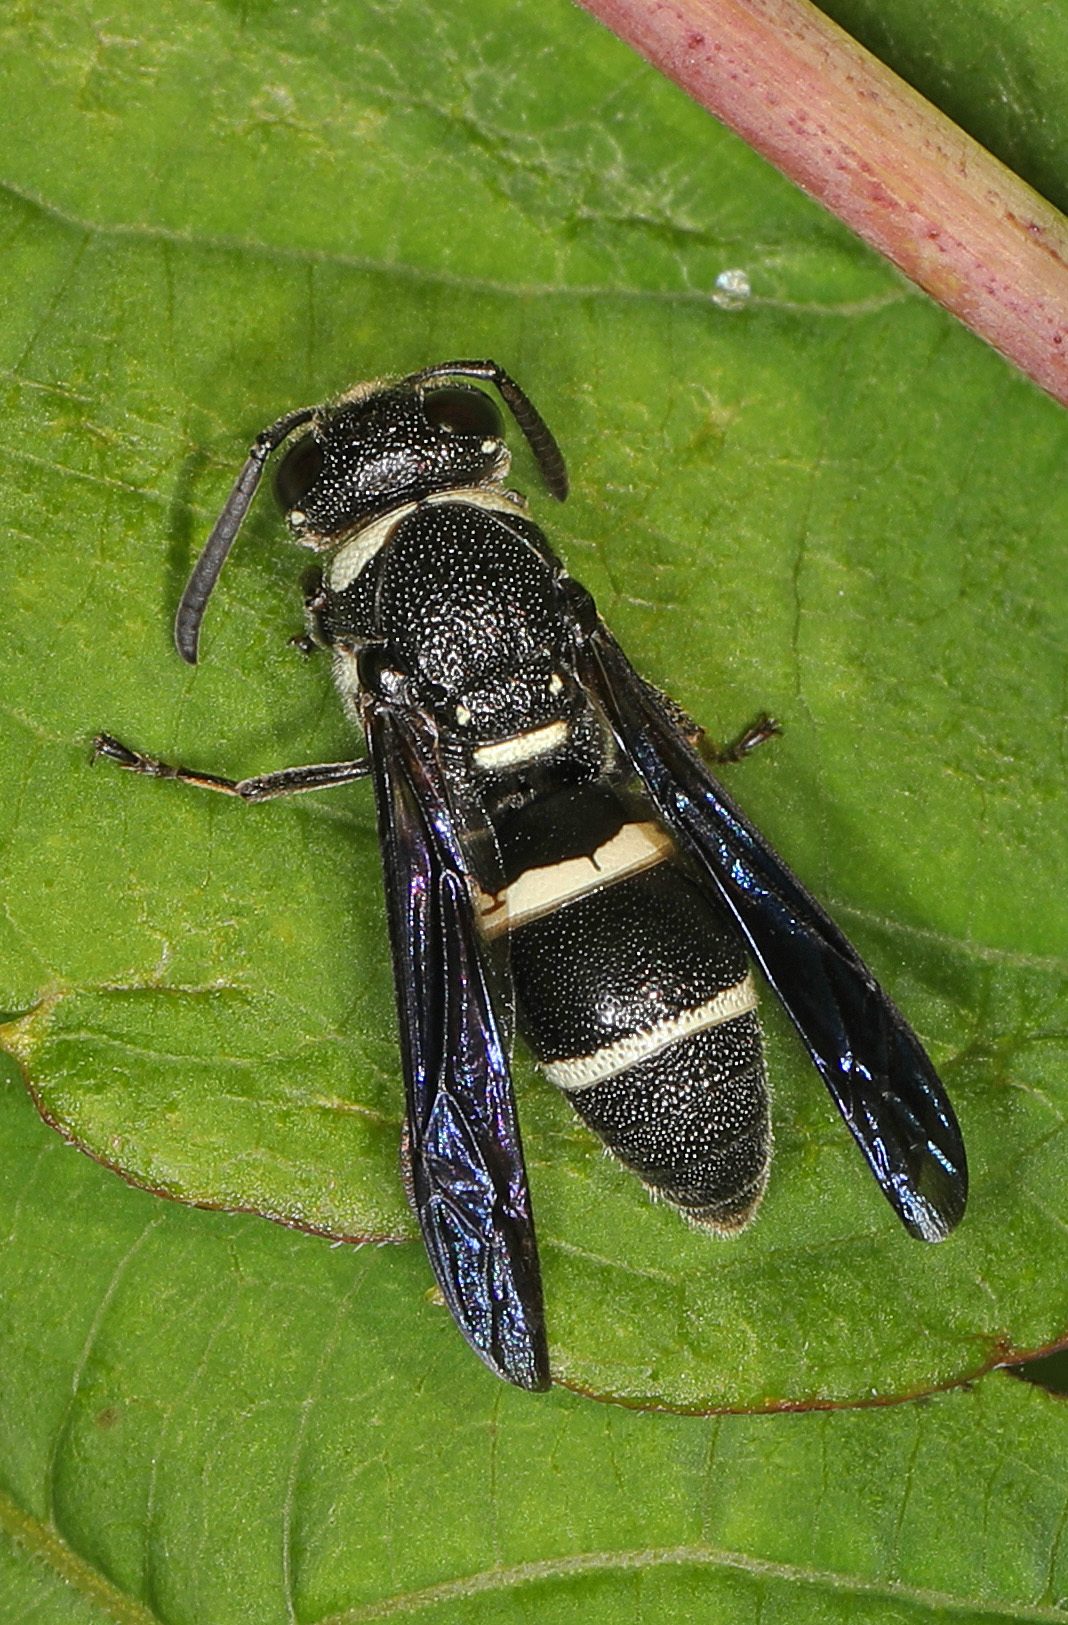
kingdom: Animalia
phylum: Arthropoda
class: Insecta
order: Hymenoptera
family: Eumenidae
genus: Euodynerus
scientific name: Euodynerus megaera
